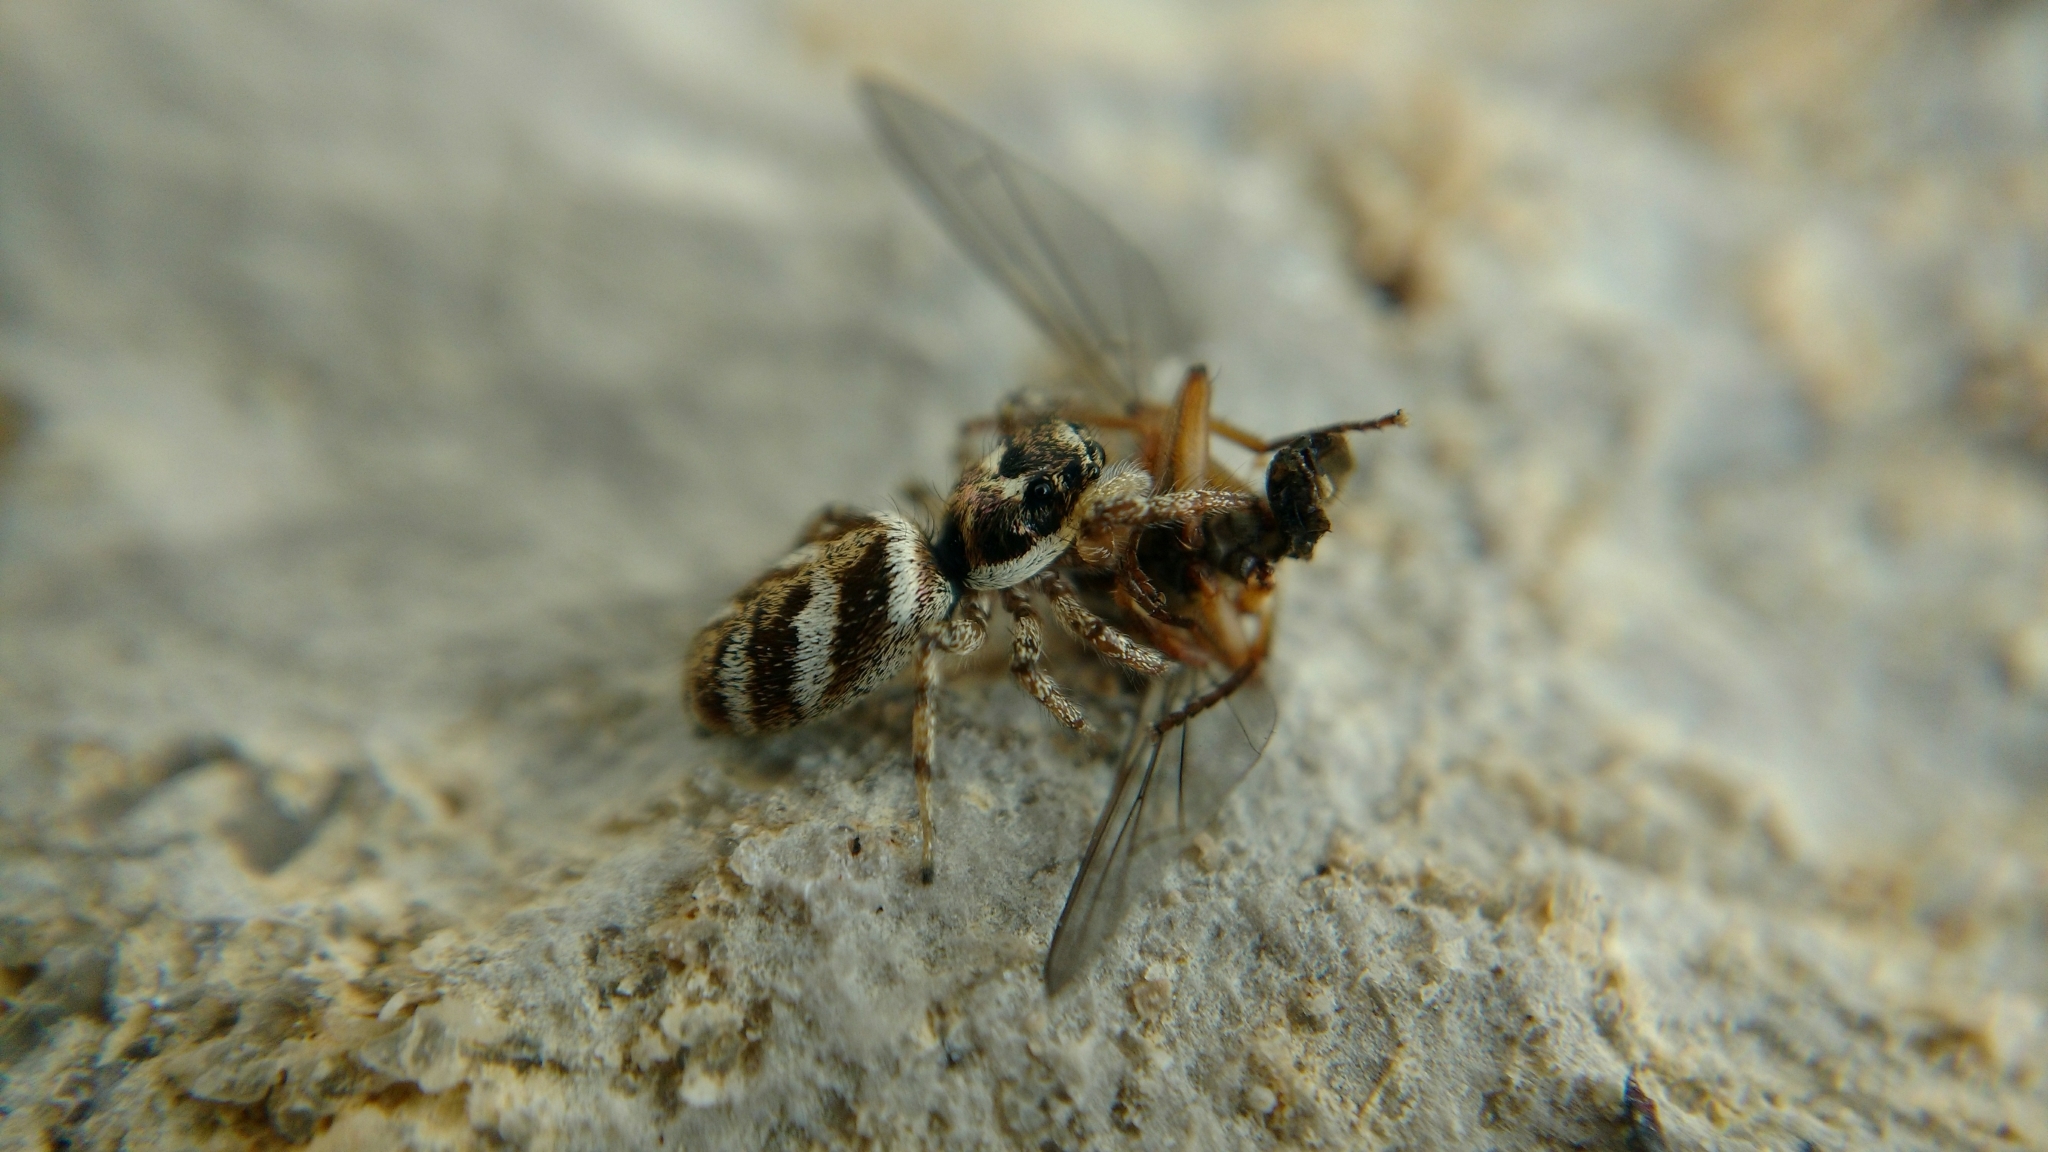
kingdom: Animalia
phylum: Arthropoda
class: Arachnida
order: Araneae
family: Salticidae
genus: Salticus
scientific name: Salticus scenicus
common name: Zebra jumper
